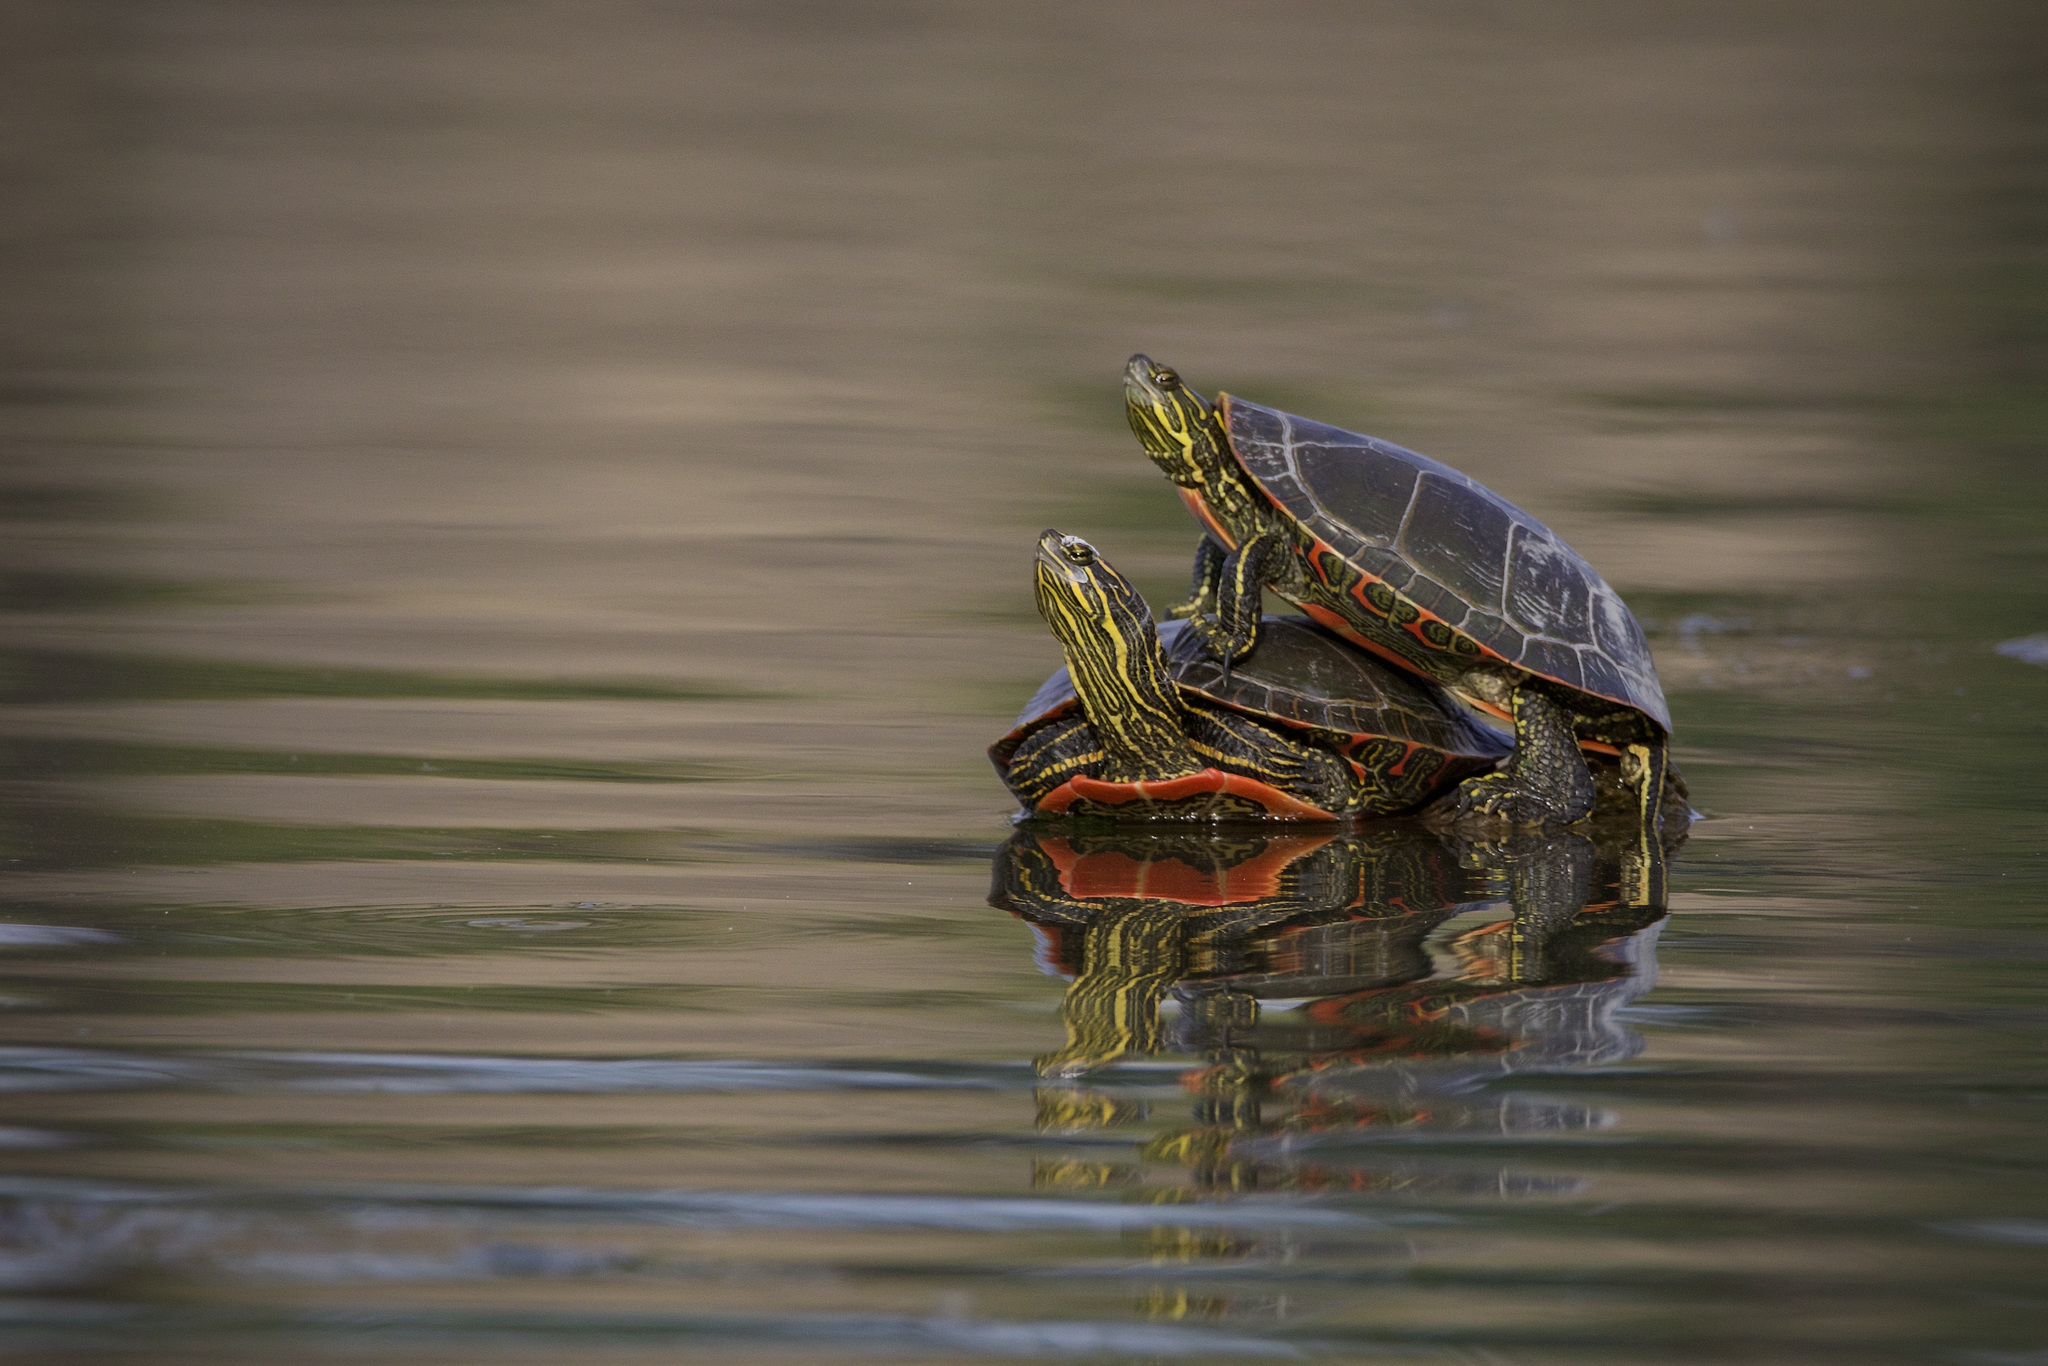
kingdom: Animalia
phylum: Chordata
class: Testudines
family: Emydidae
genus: Chrysemys
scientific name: Chrysemys picta
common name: Painted turtle
